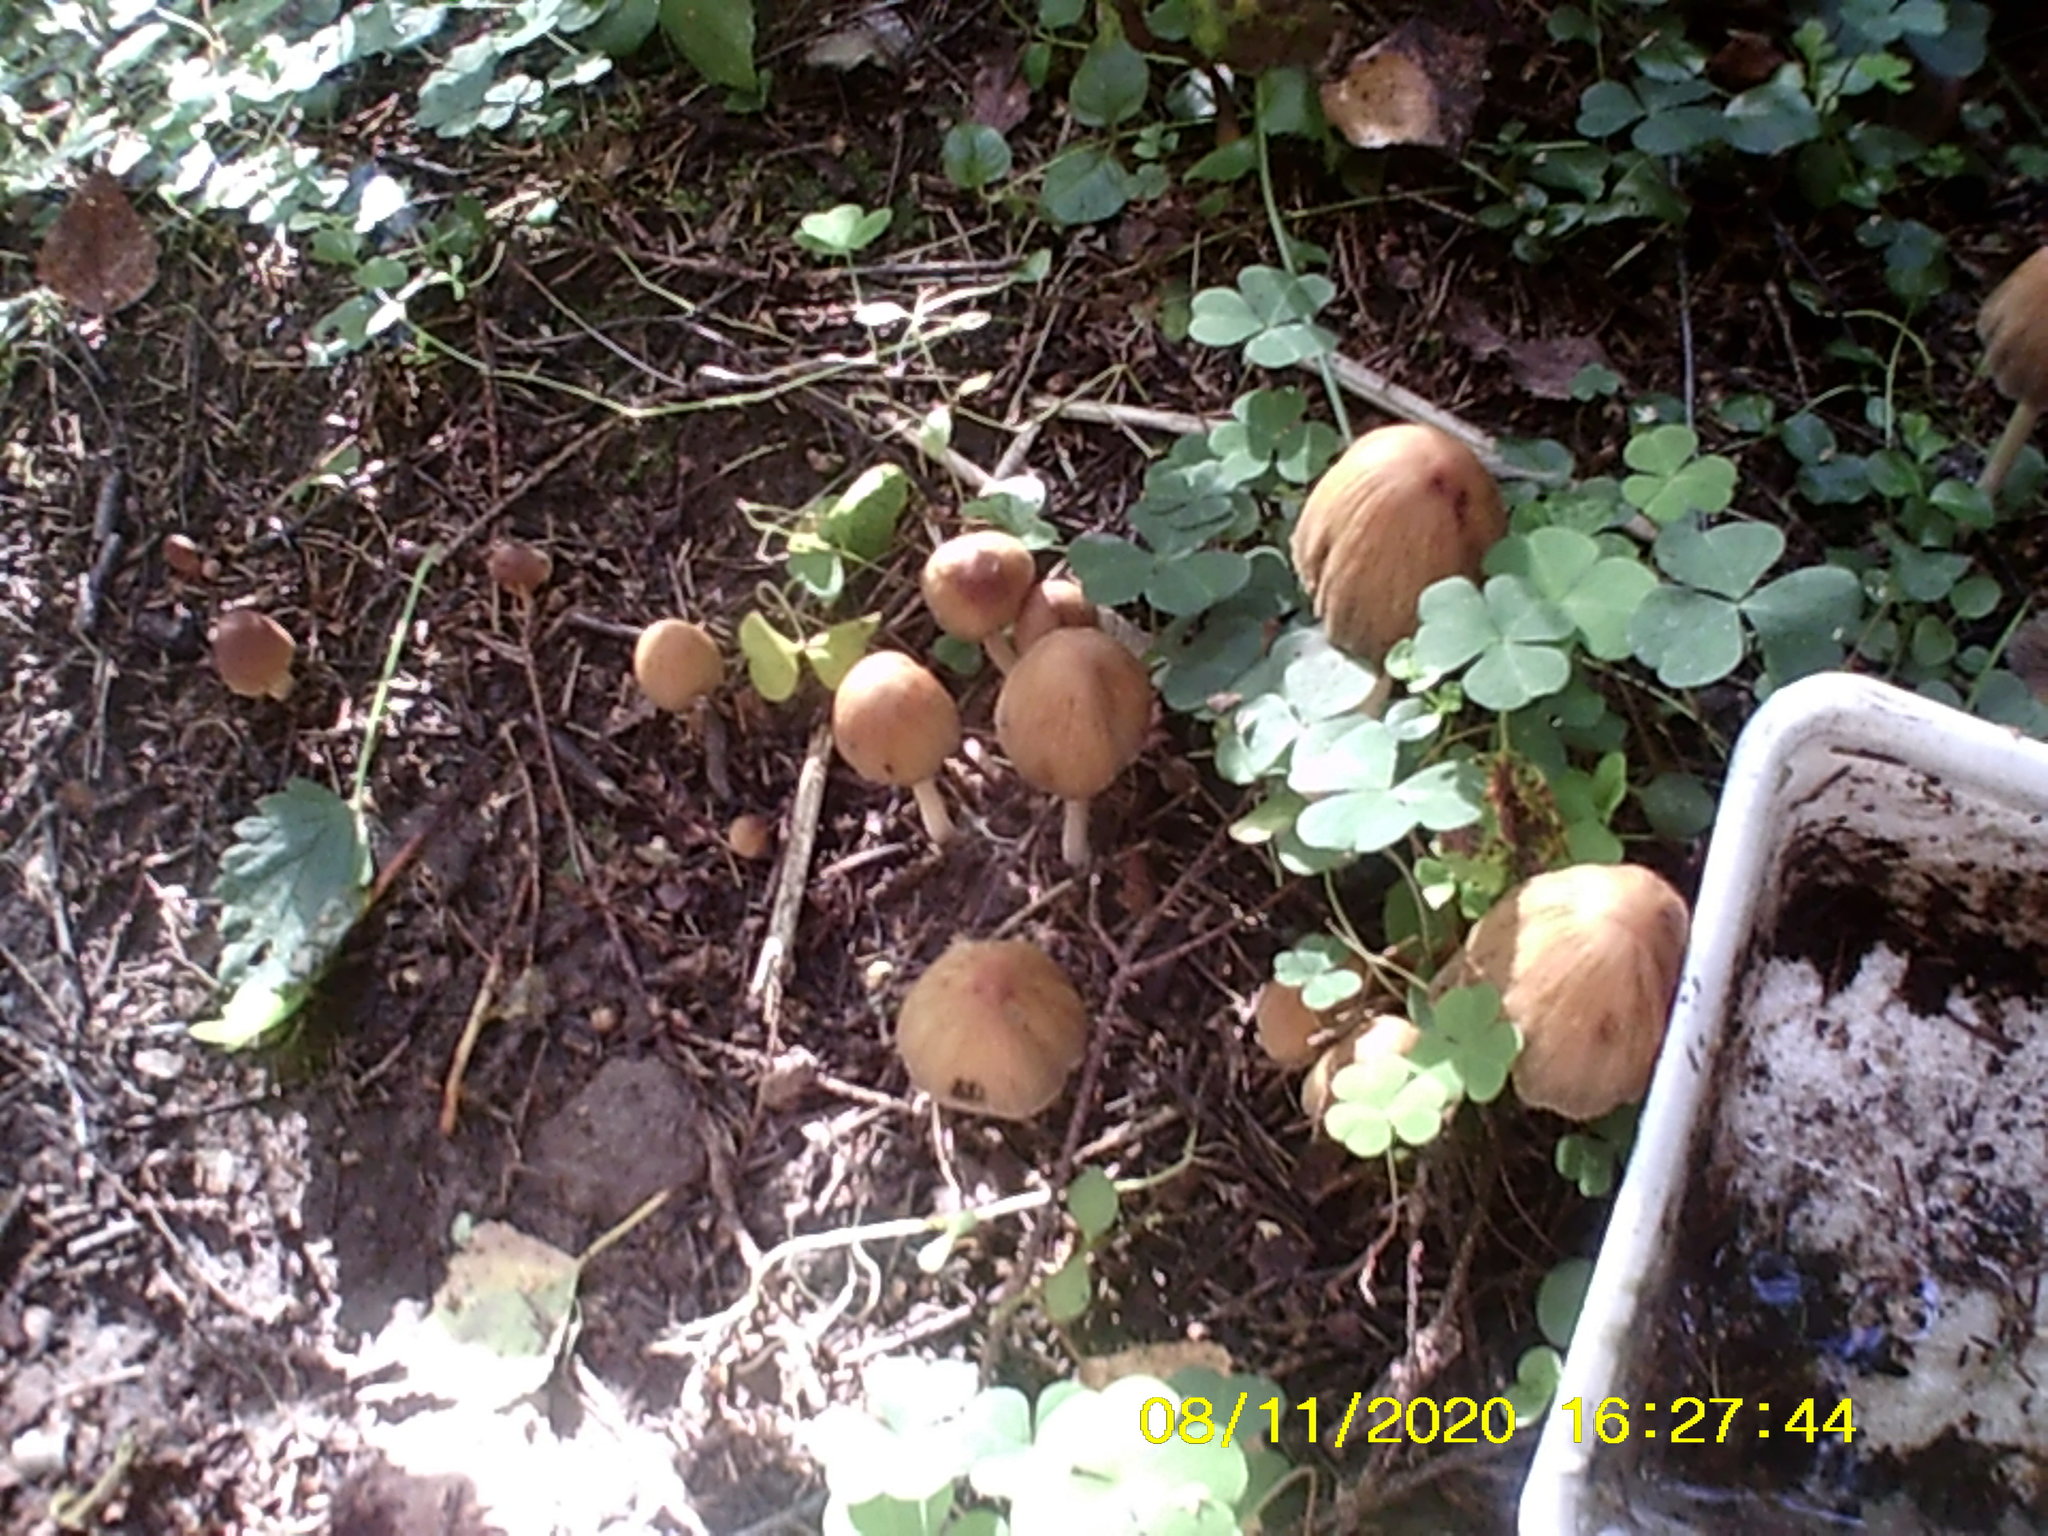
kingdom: Fungi
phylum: Basidiomycota
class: Agaricomycetes
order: Agaricales
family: Psathyrellaceae
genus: Coprinellus
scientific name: Coprinellus micaceus
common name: Glistening ink-cap
